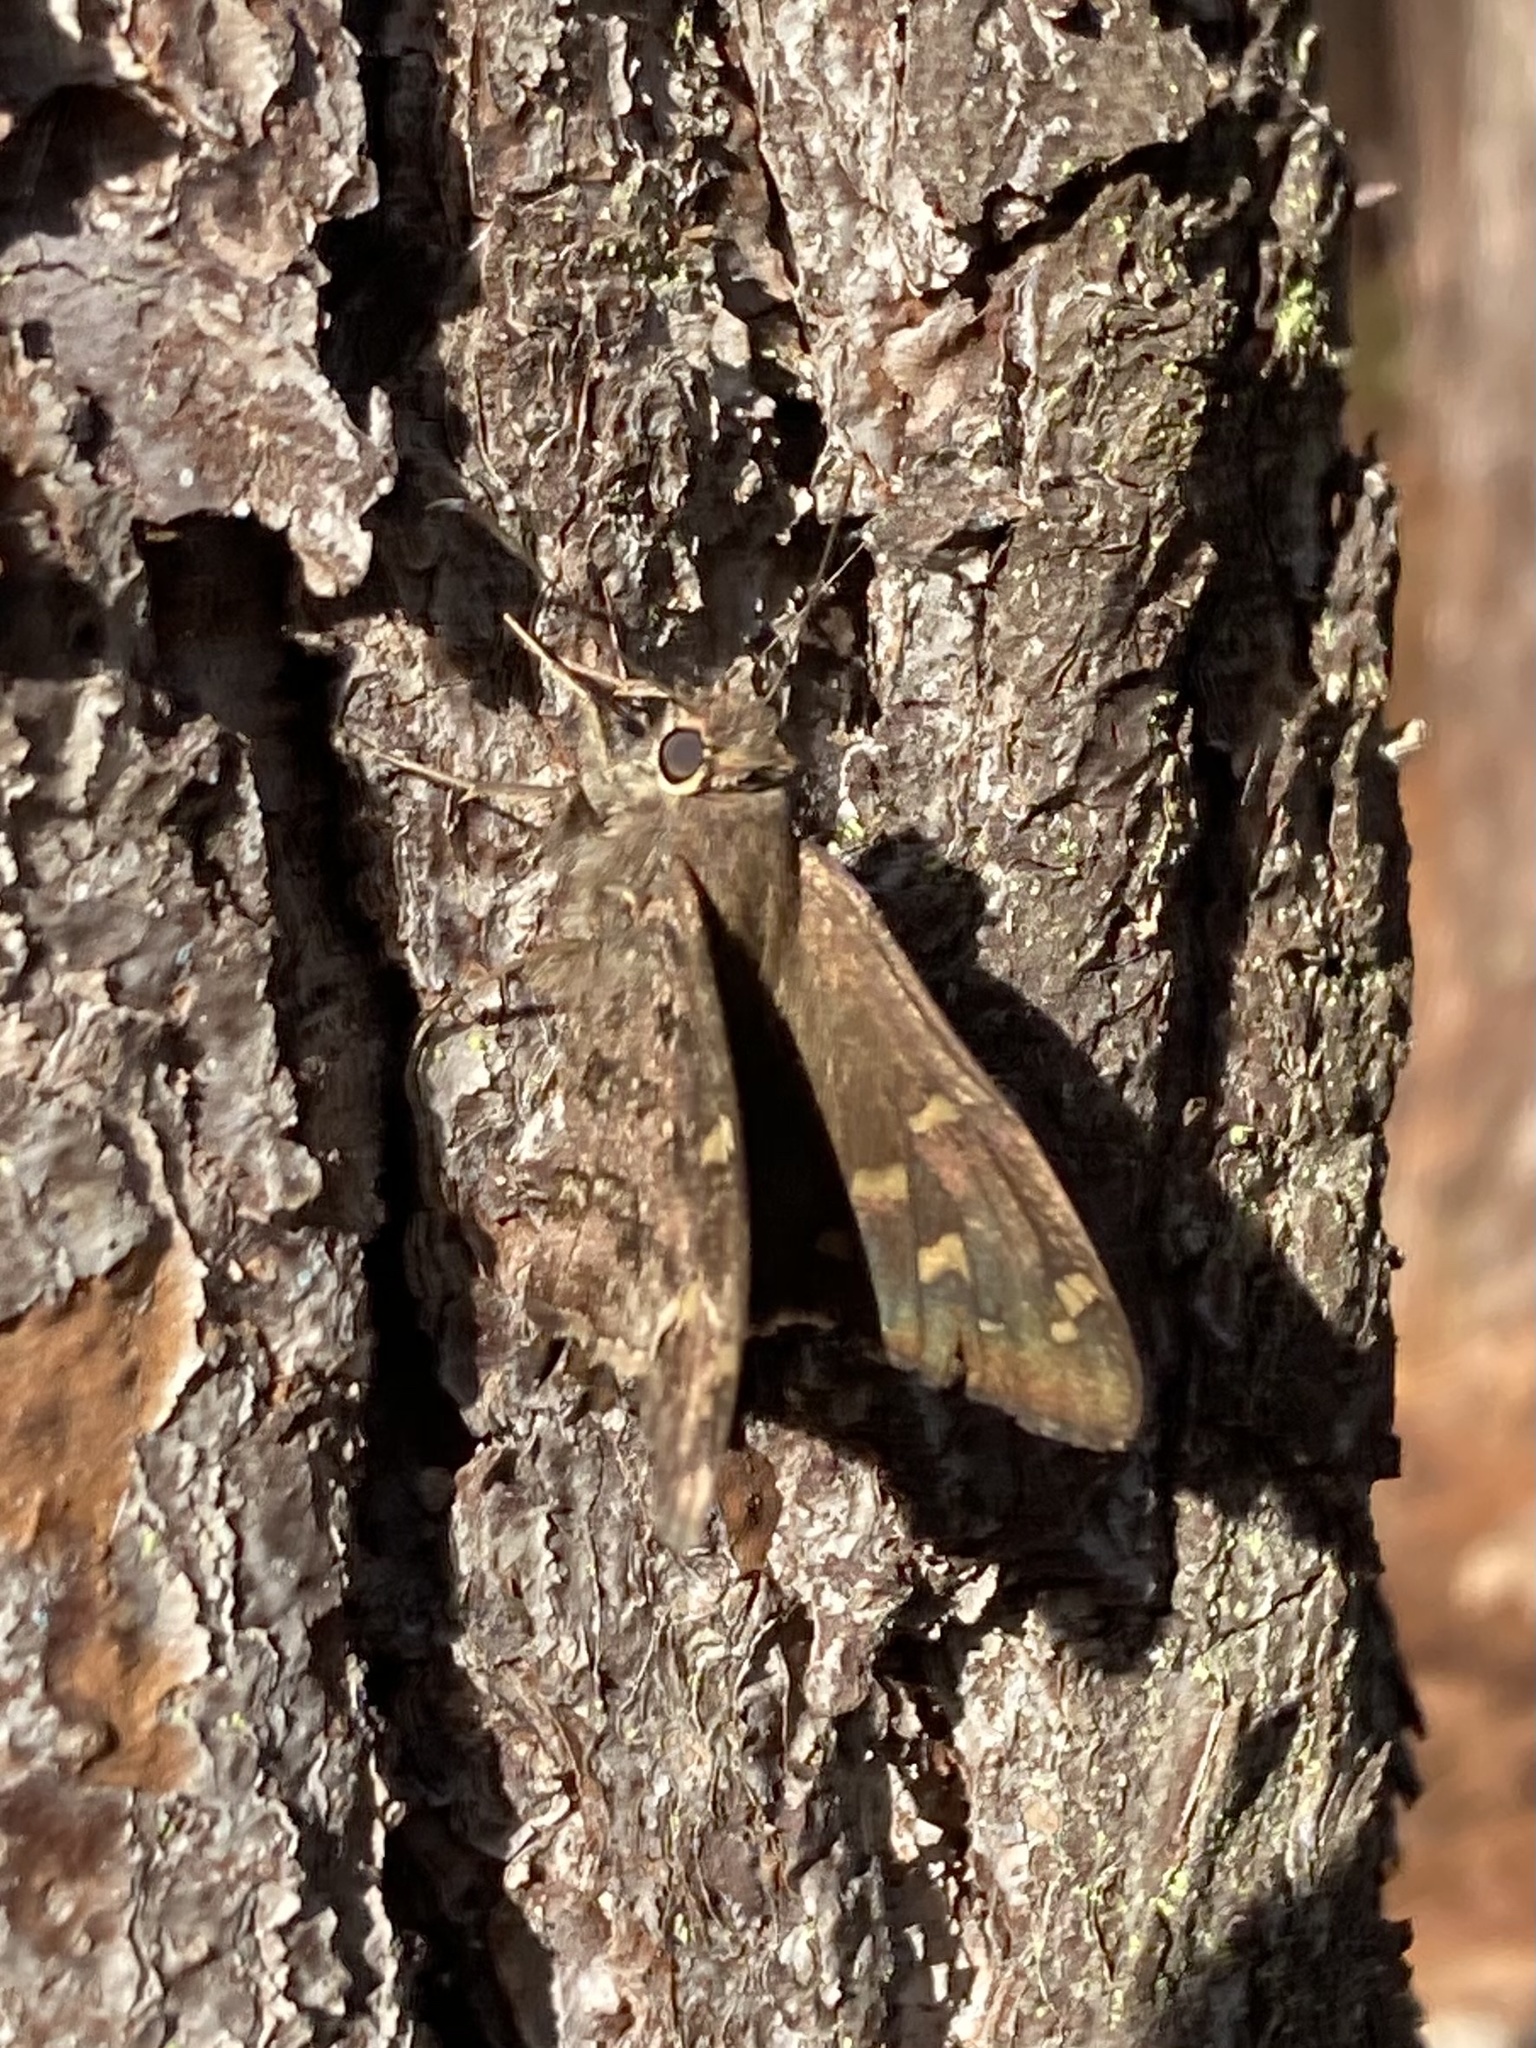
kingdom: Animalia
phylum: Arthropoda
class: Insecta
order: Lepidoptera
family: Hesperiidae
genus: Thorybes
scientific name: Thorybes
